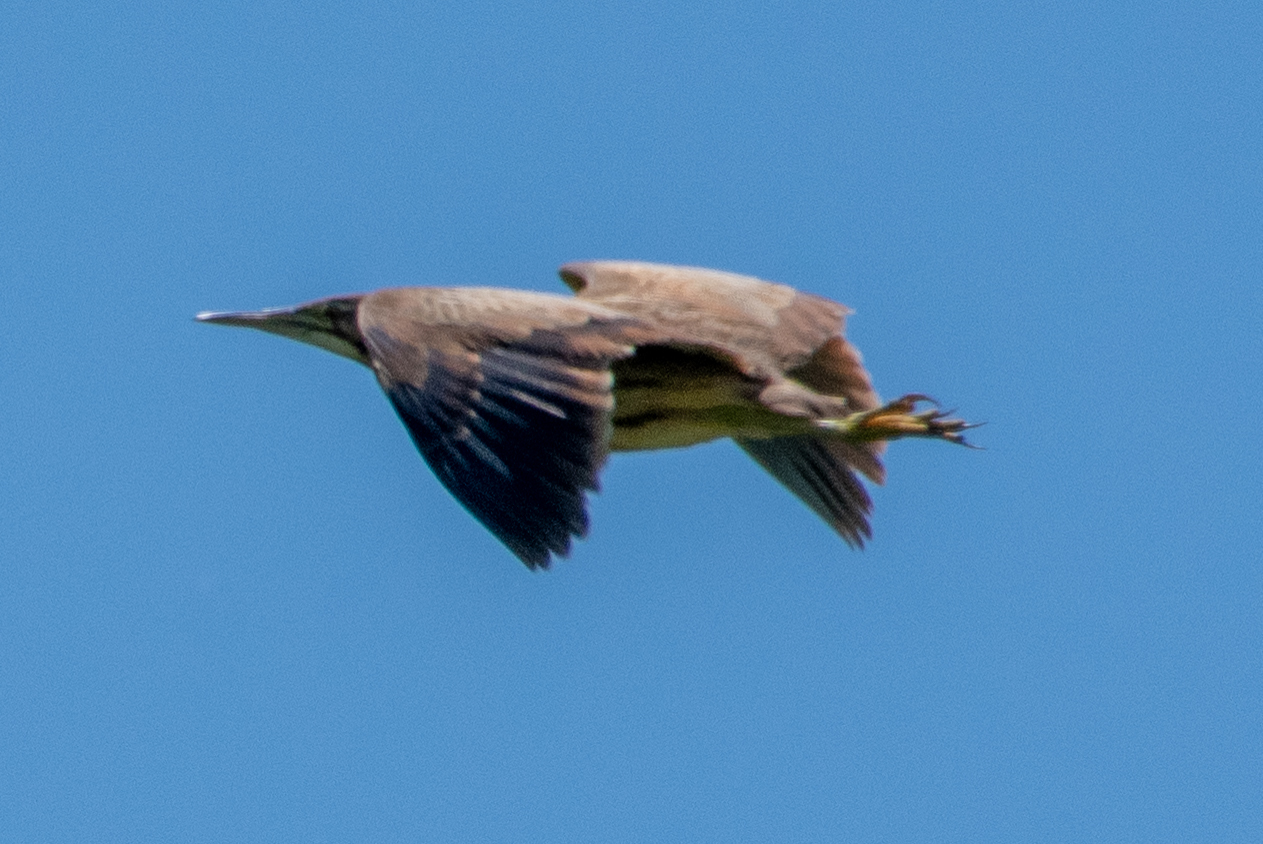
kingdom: Animalia
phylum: Chordata
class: Aves
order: Pelecaniformes
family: Ardeidae
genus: Botaurus
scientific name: Botaurus lentiginosus
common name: American bittern
